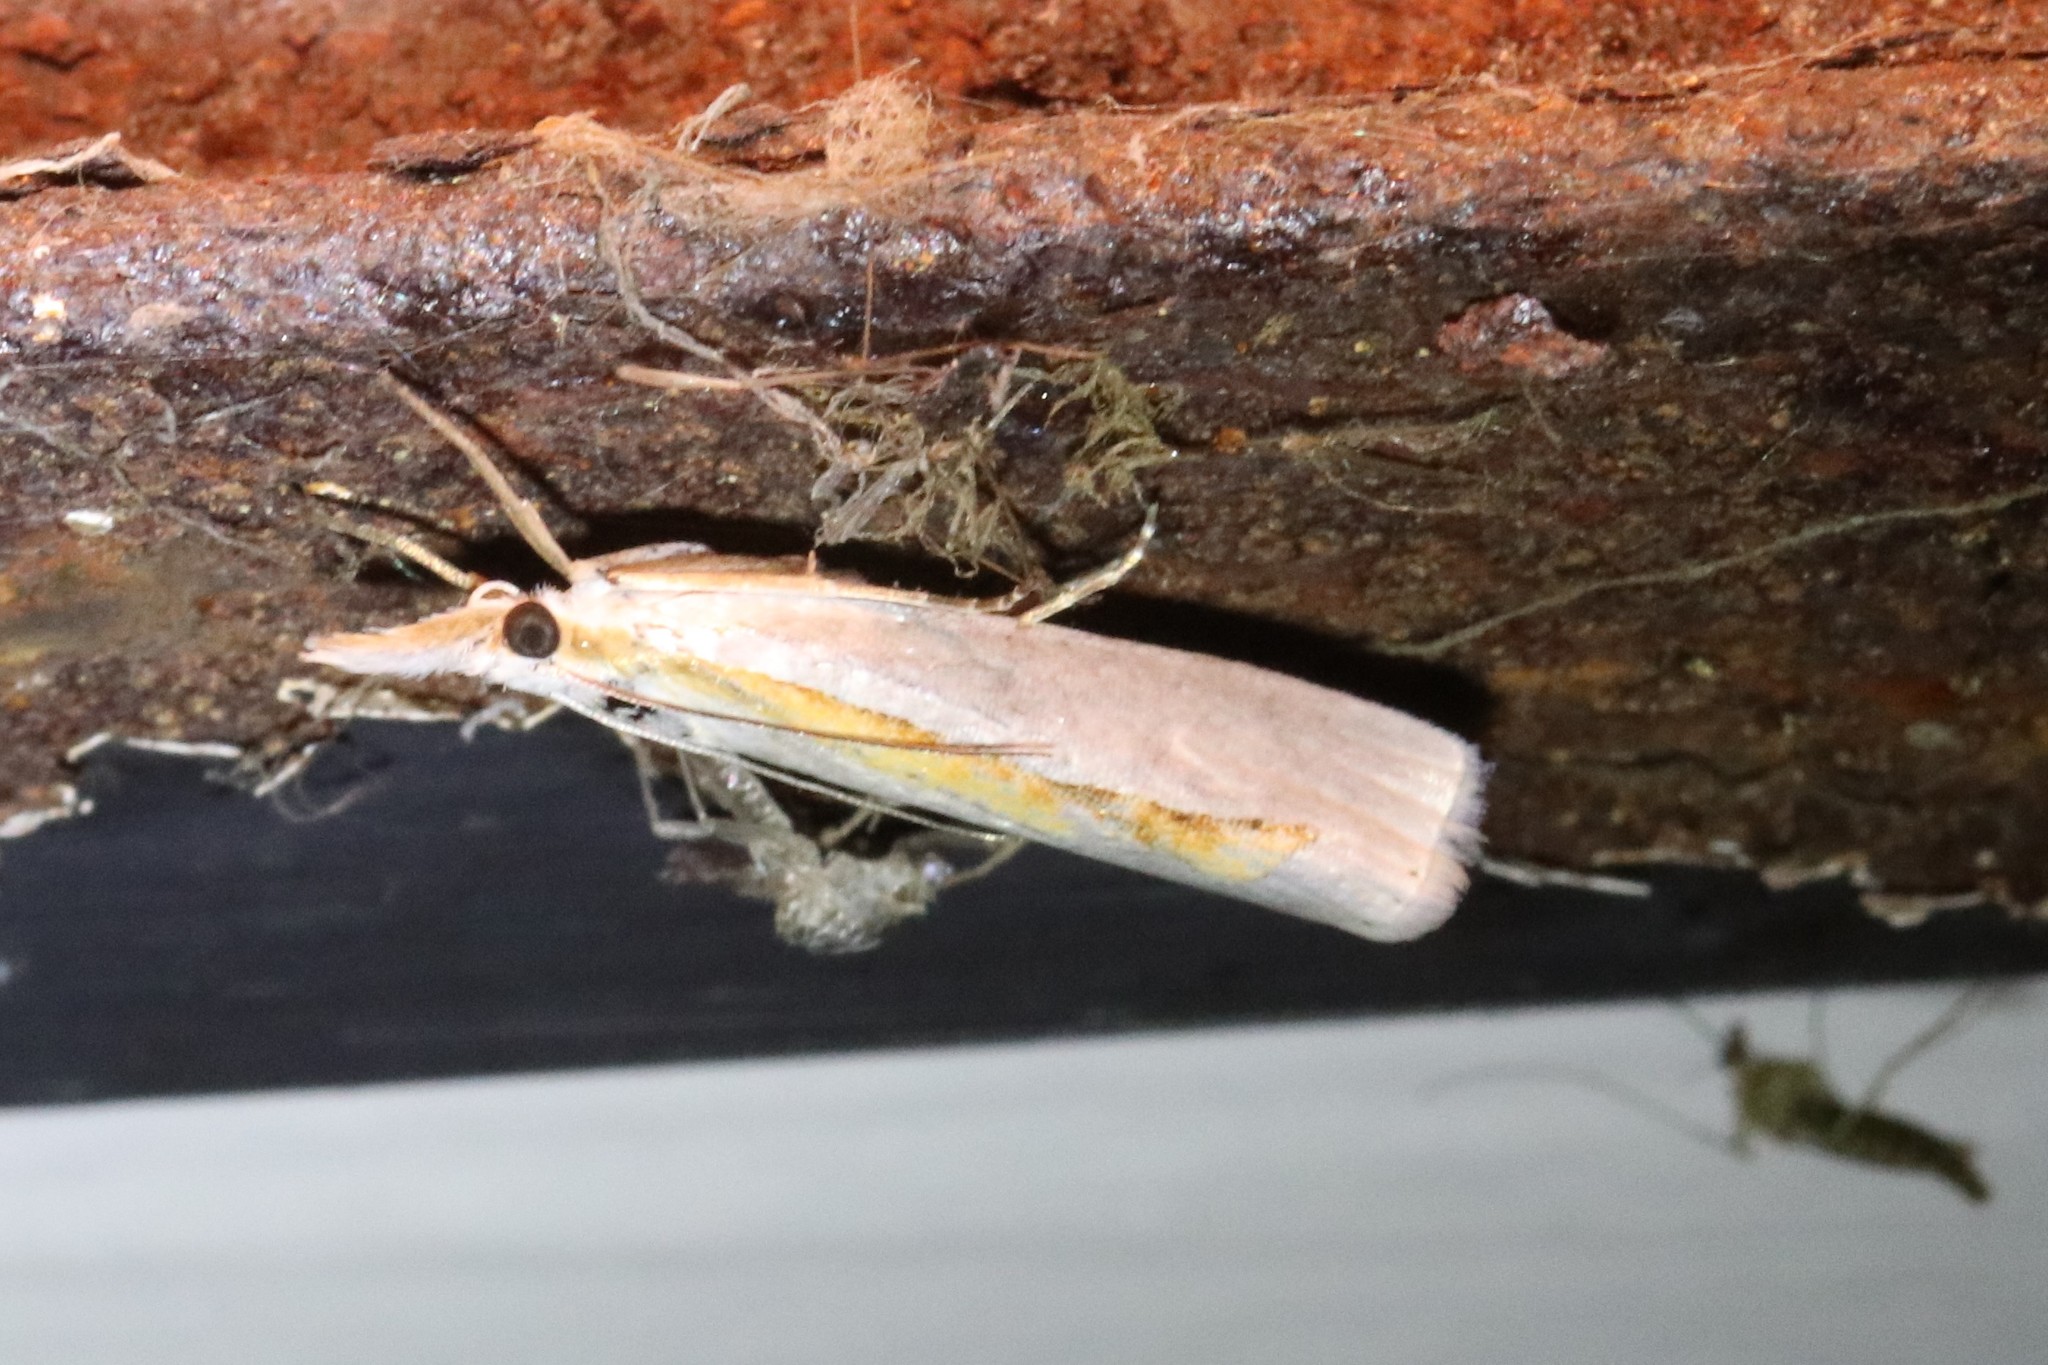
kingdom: Animalia
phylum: Arthropoda
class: Insecta
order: Lepidoptera
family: Crambidae
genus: Crambus
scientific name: Crambus girardellus
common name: Girard's grass-veneer
